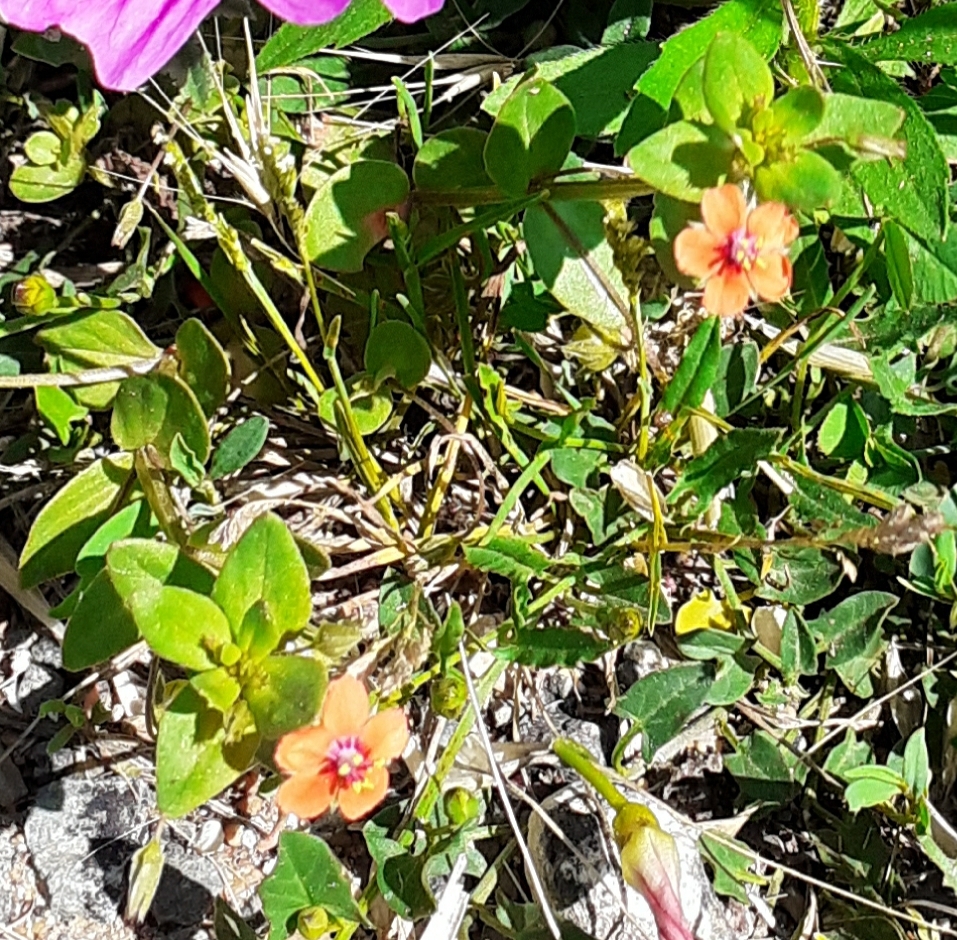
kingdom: Plantae
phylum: Tracheophyta
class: Magnoliopsida
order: Ericales
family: Primulaceae
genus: Lysimachia
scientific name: Lysimachia arvensis
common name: Scarlet pimpernel
